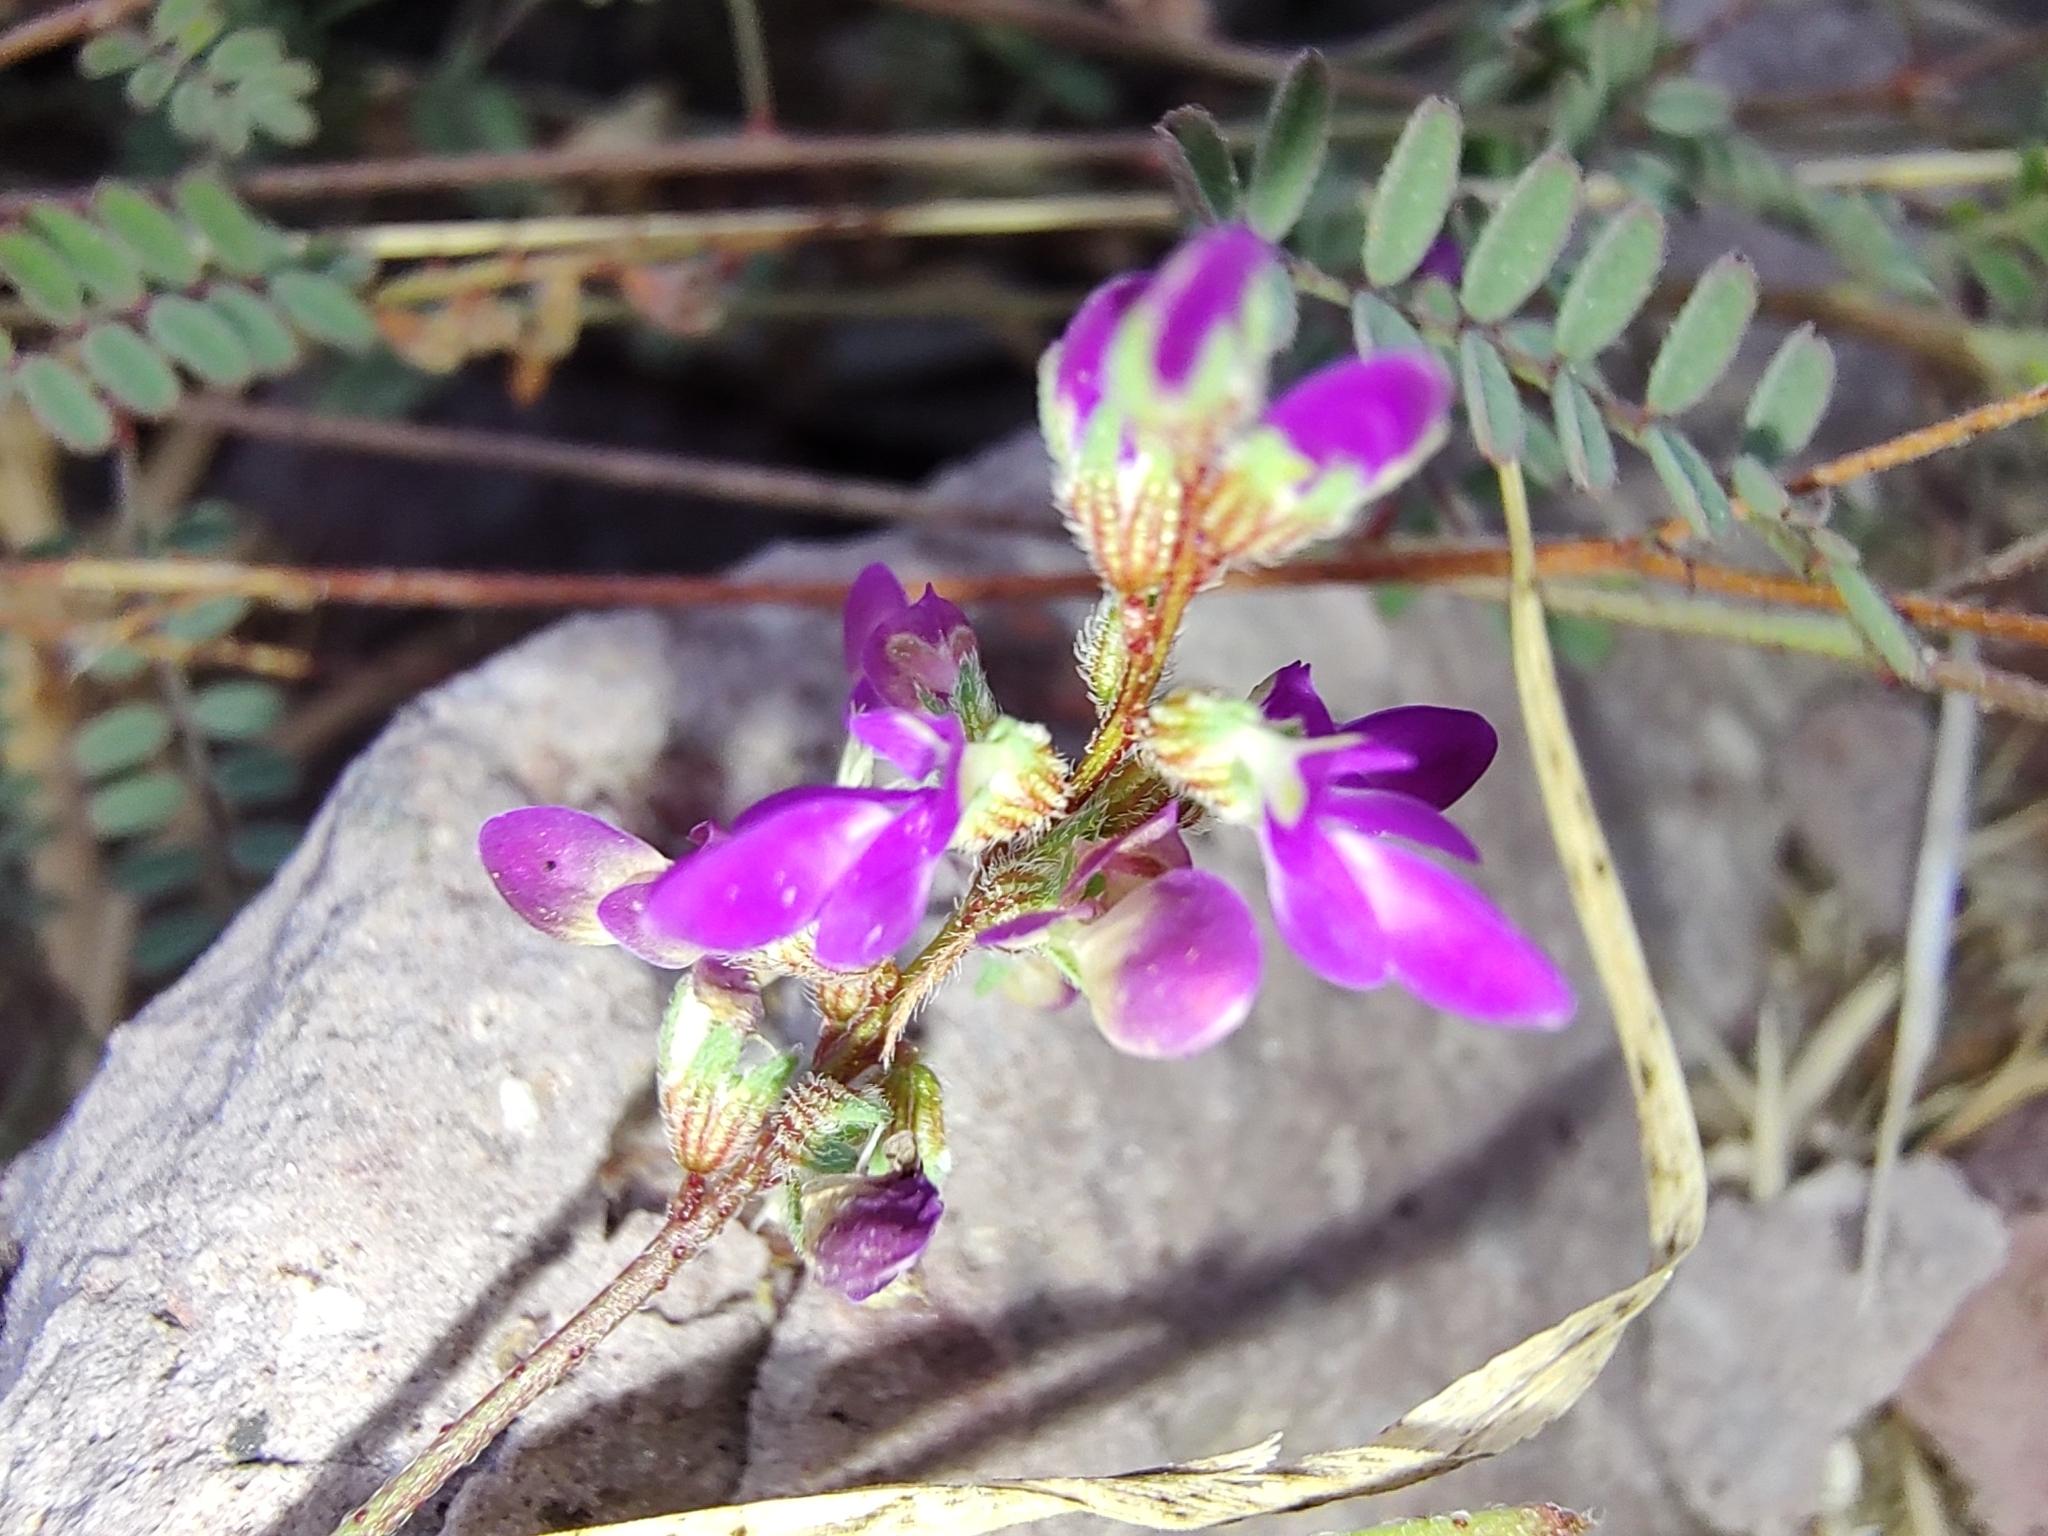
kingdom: Plantae
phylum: Tracheophyta
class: Magnoliopsida
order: Fabales
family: Fabaceae
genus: Marina
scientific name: Marina parryi
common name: Parry's marina
